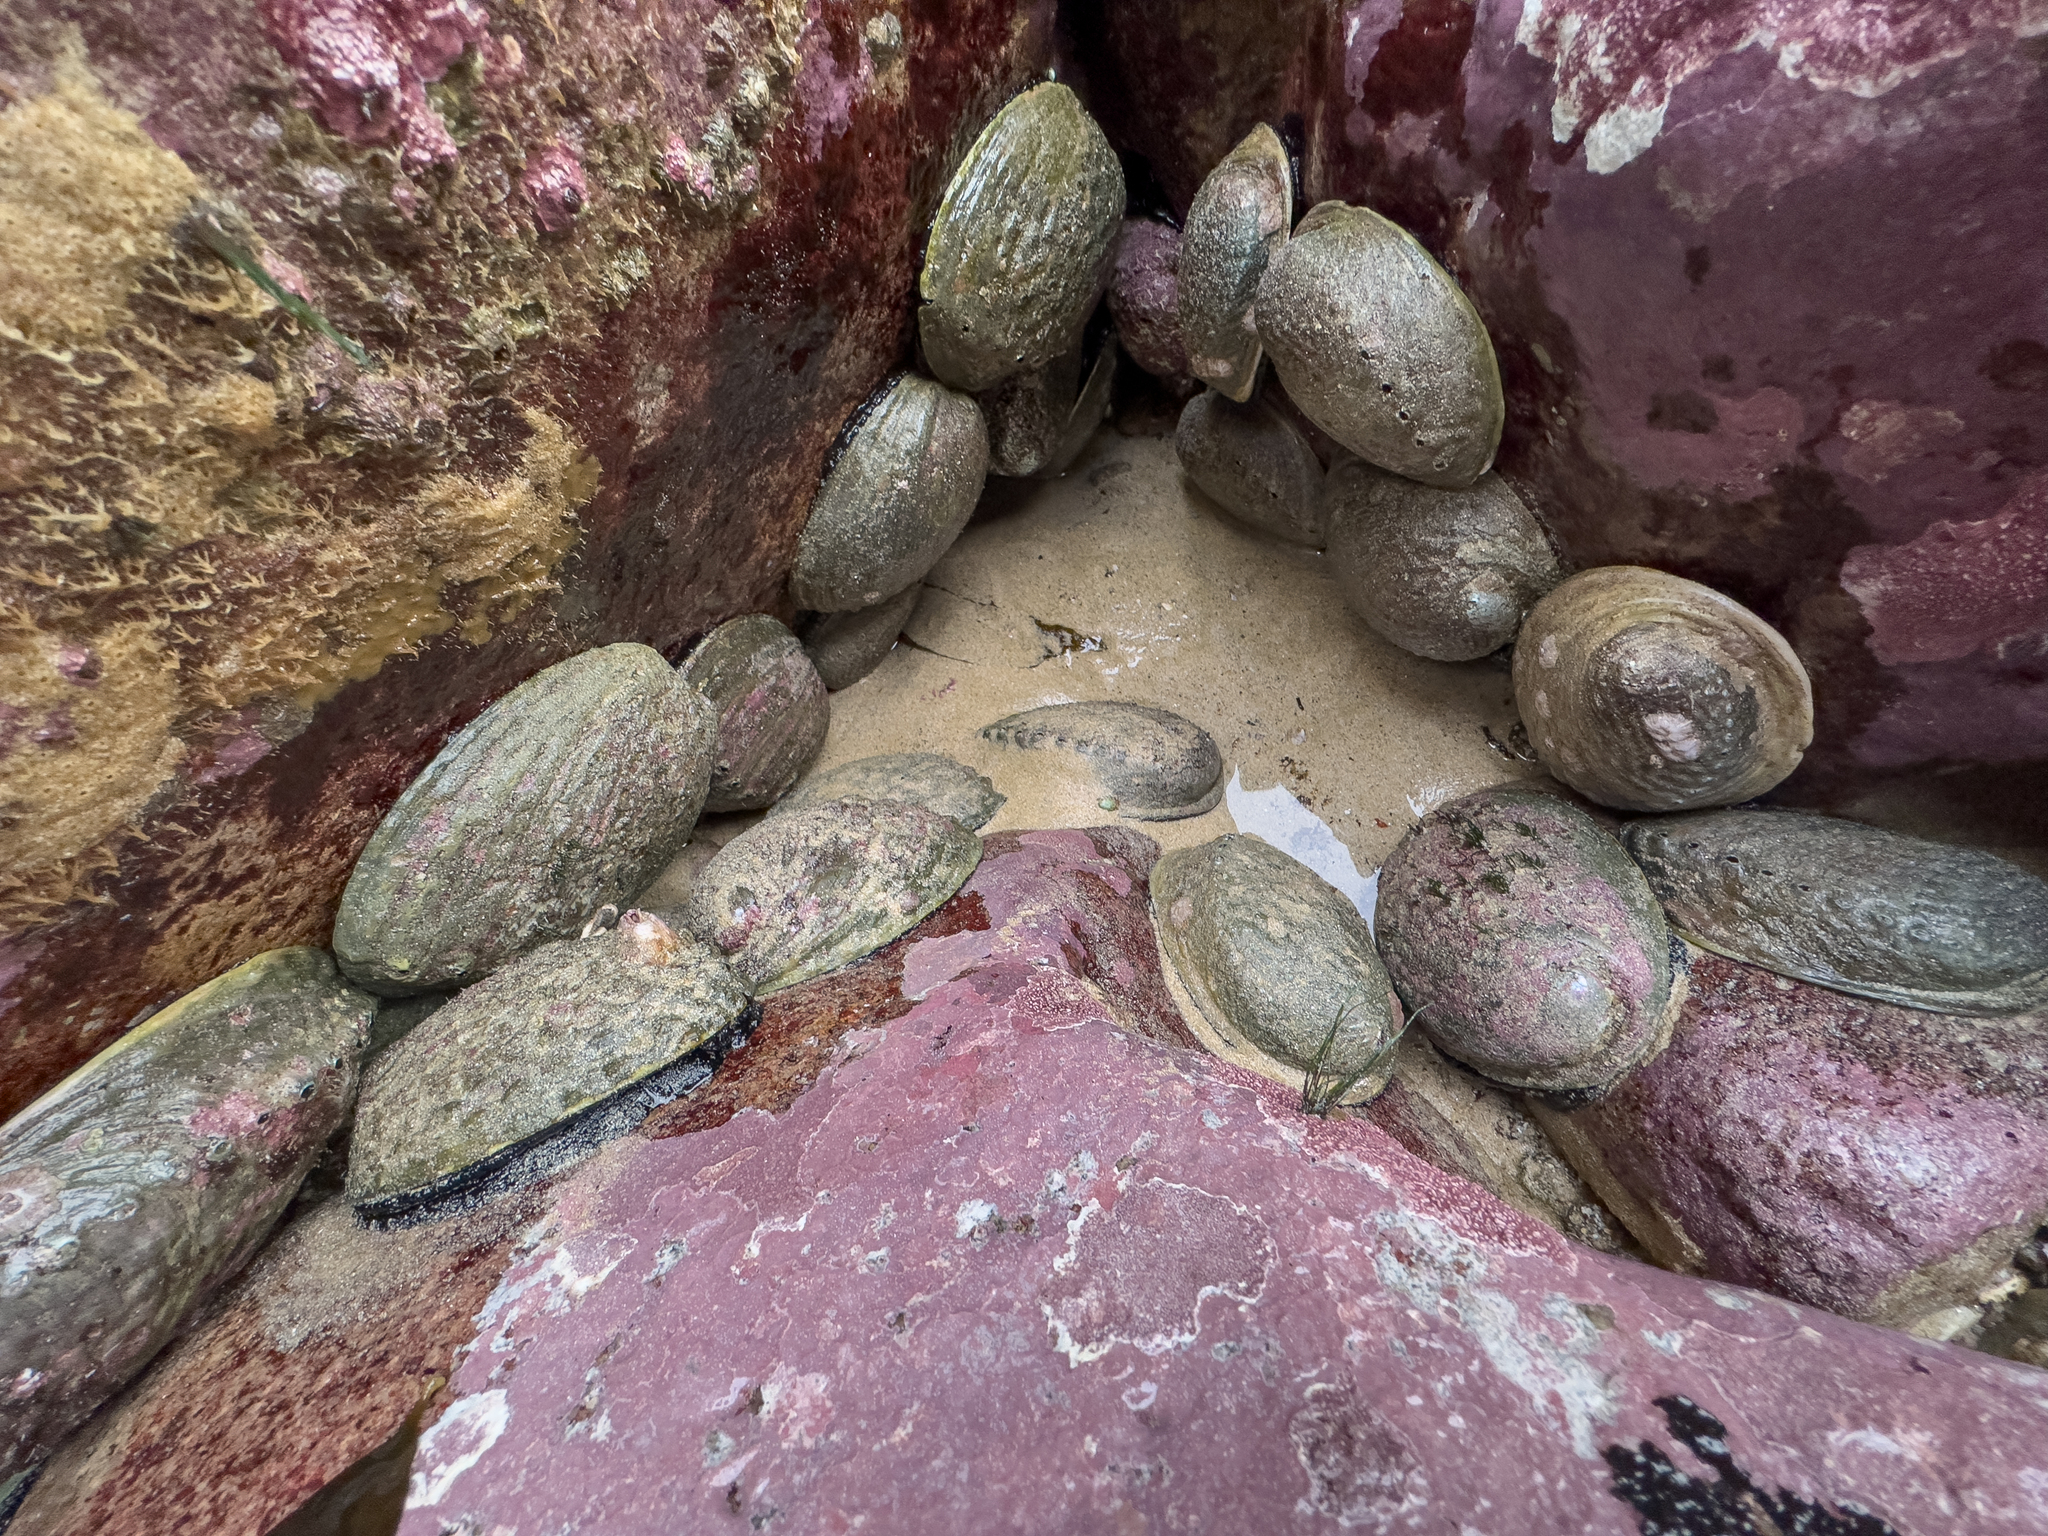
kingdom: Animalia
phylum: Mollusca
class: Gastropoda
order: Lepetellida
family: Haliotidae
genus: Haliotis
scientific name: Haliotis iris
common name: Abalone
